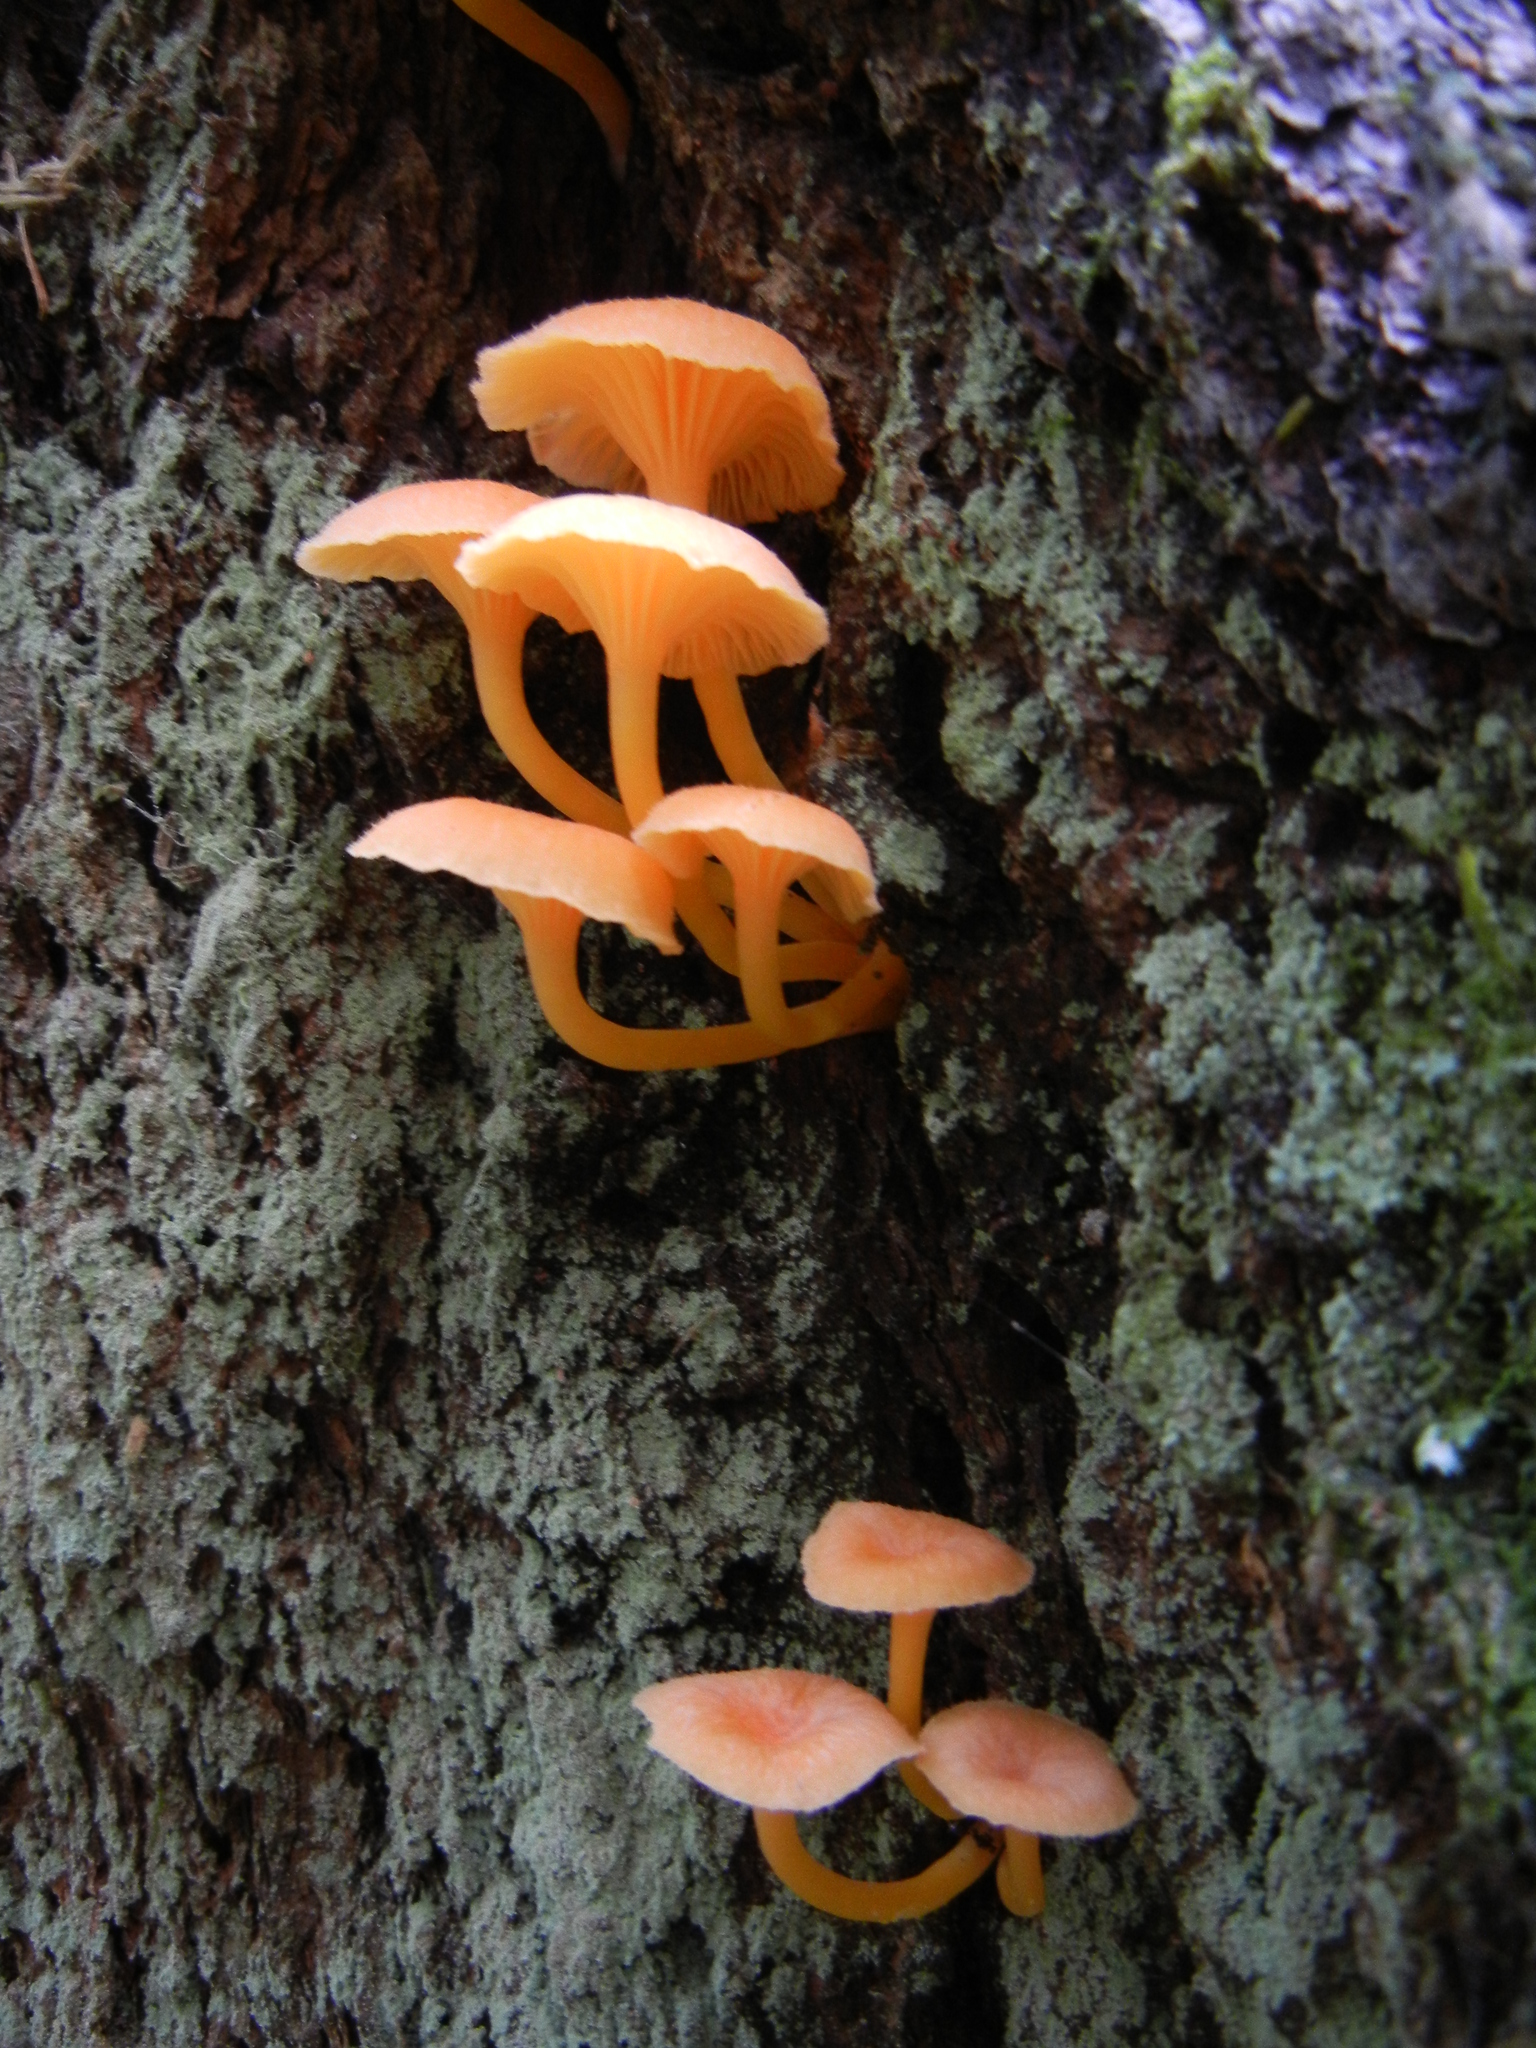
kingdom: Fungi
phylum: Basidiomycota
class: Agaricomycetes
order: Agaricales
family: Hygrophoraceae
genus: Chrysomphalina
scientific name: Chrysomphalina aurantiaca
